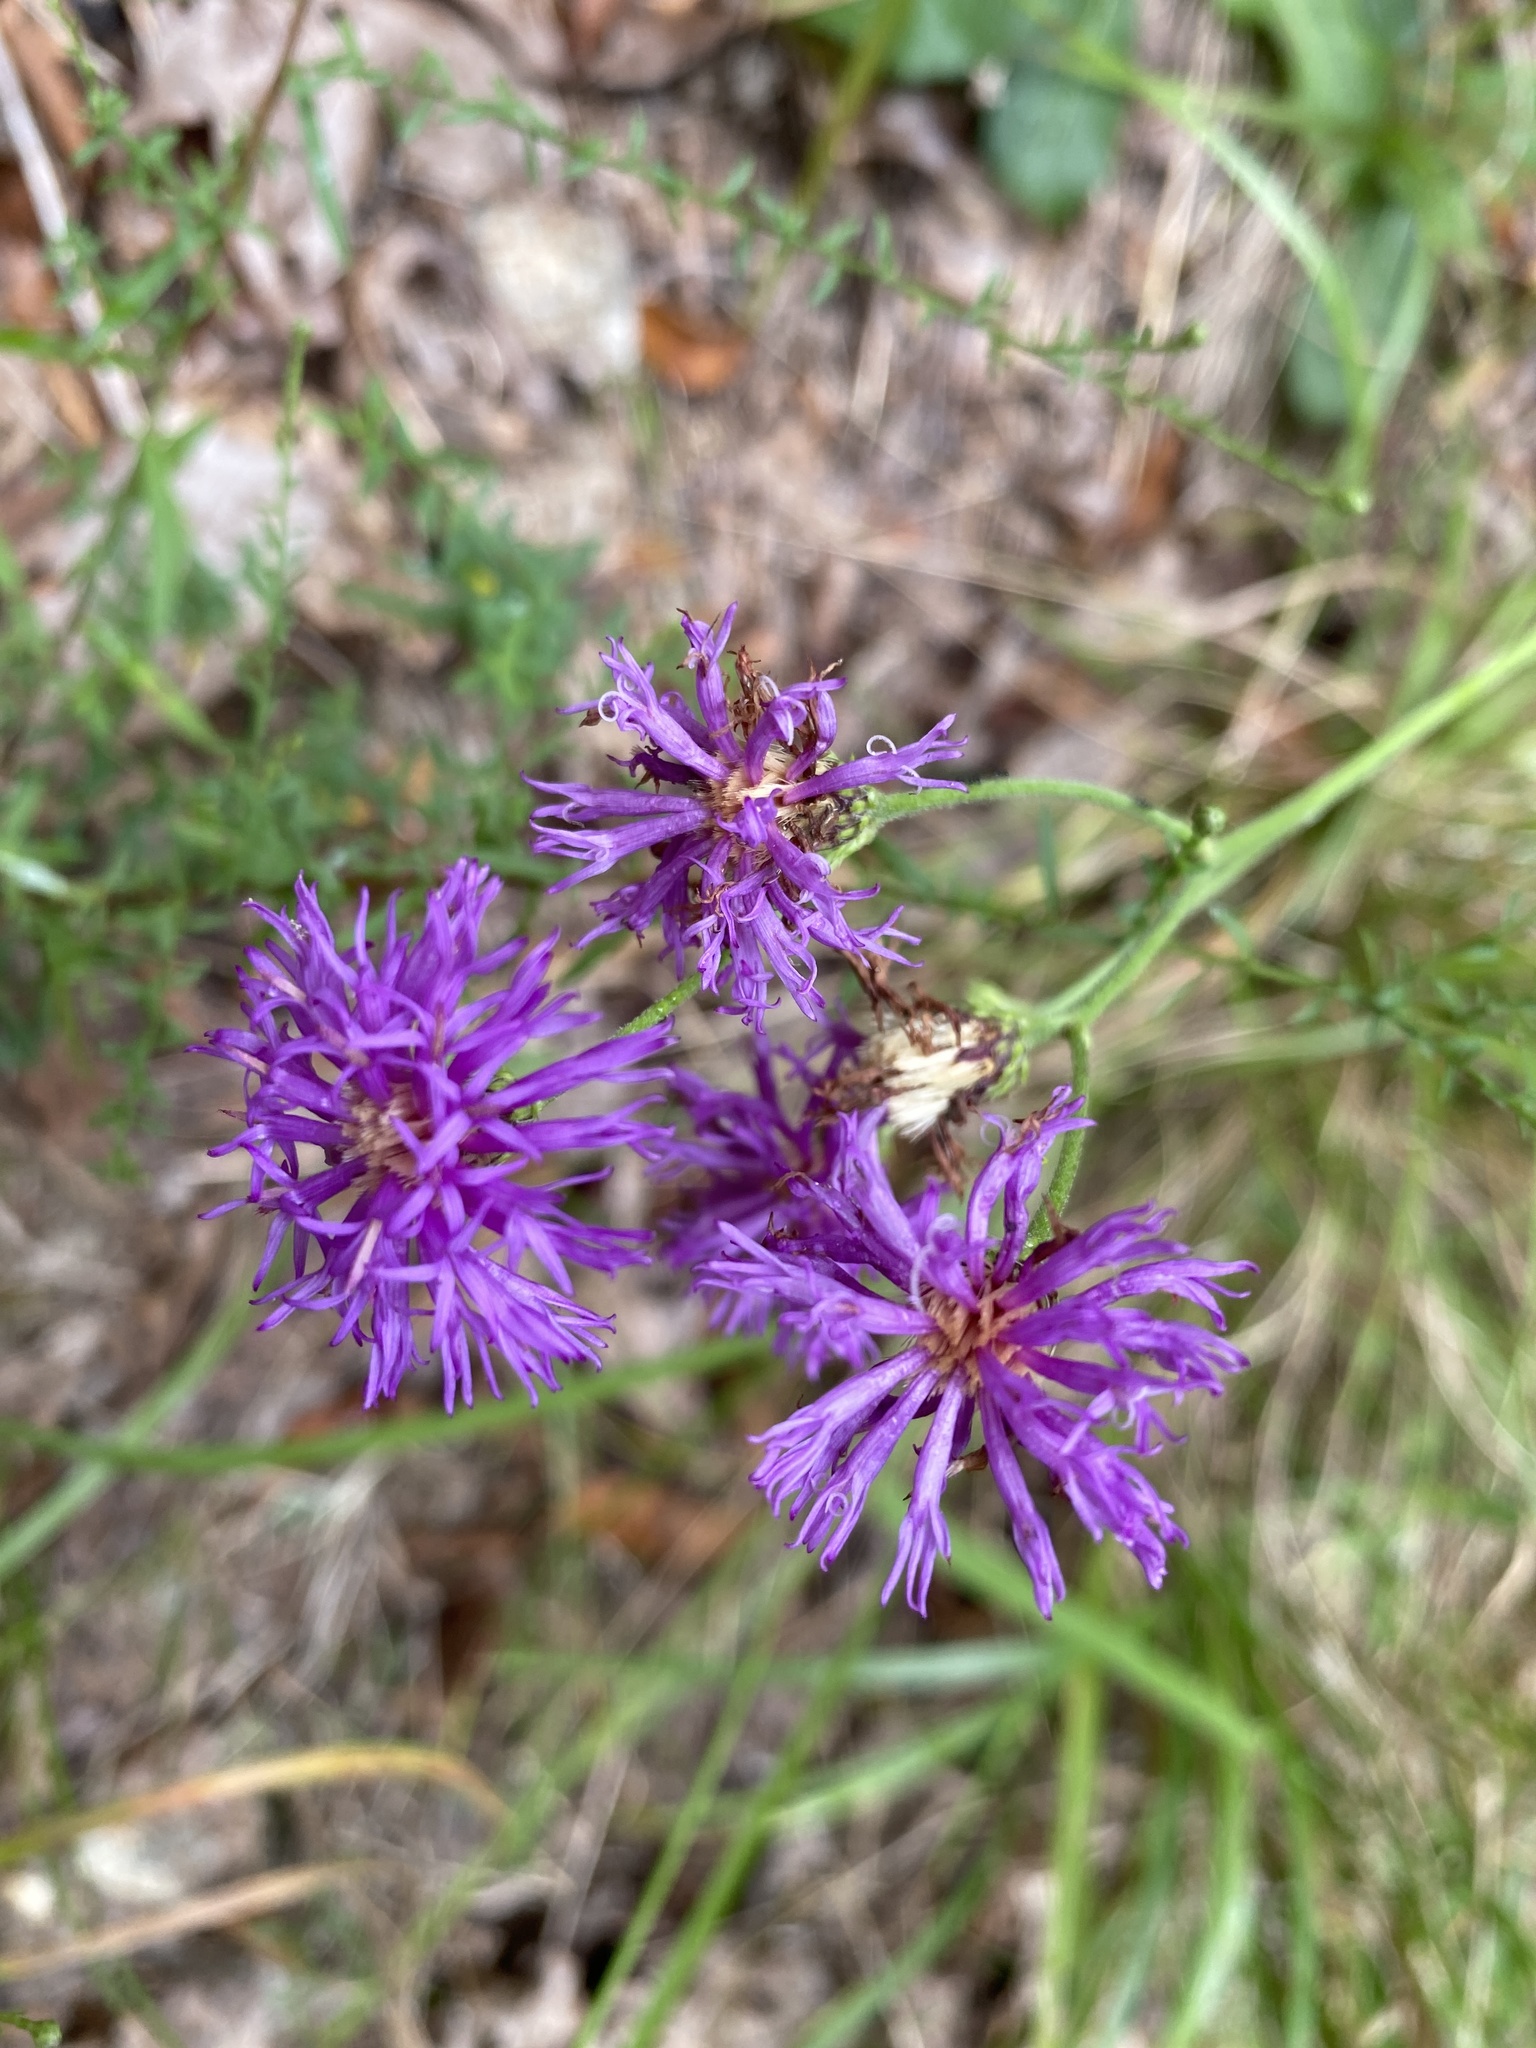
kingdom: Plantae
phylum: Tracheophyta
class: Magnoliopsida
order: Asterales
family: Asteraceae
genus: Vernonia
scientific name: Vernonia acaulis
